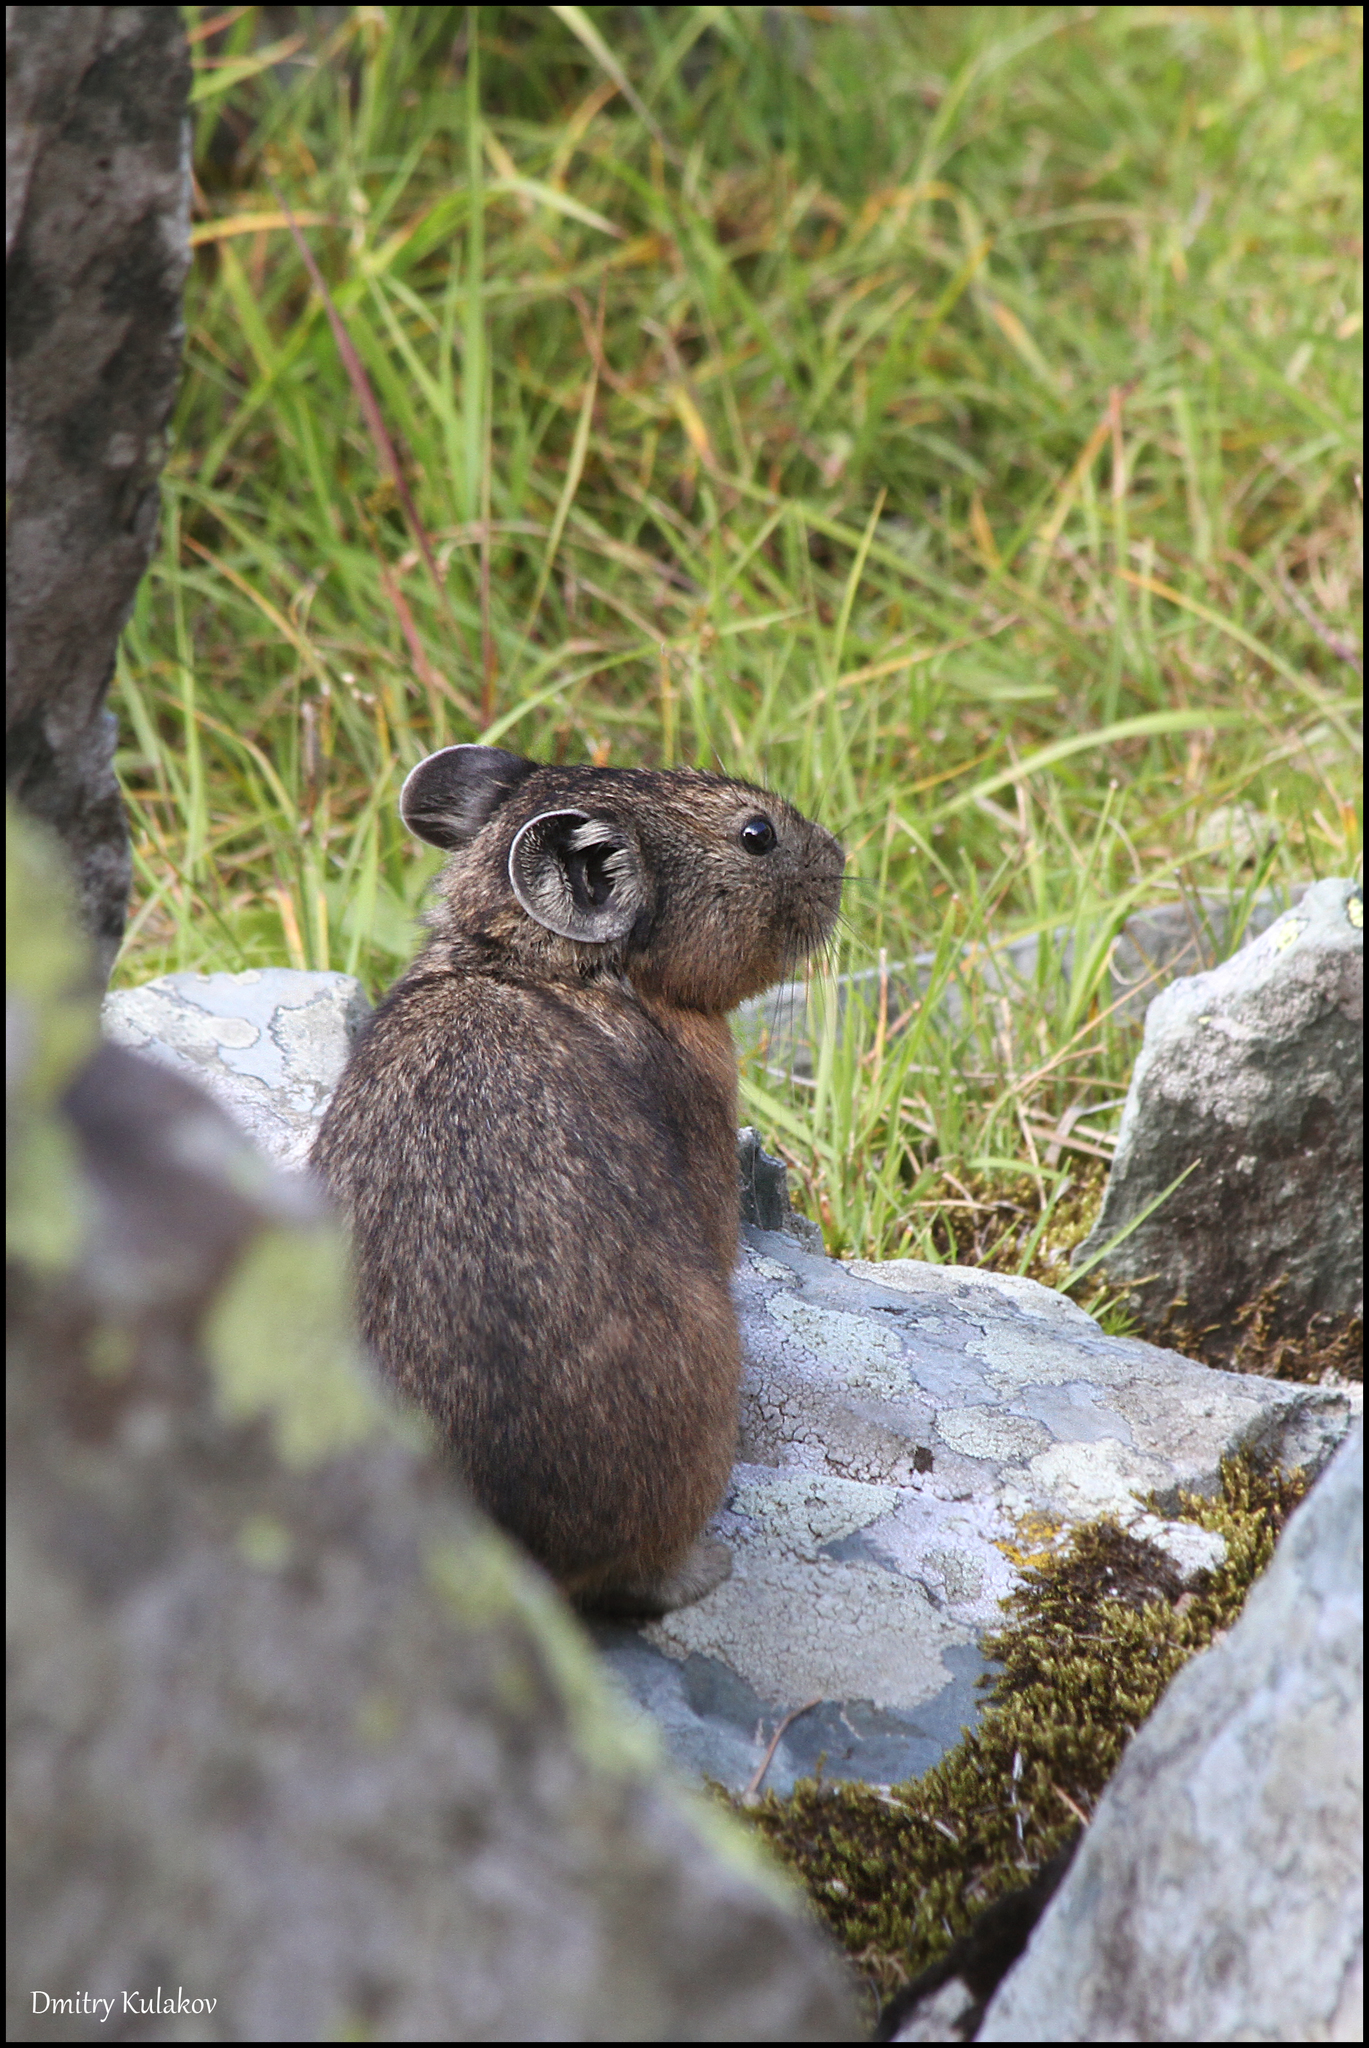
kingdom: Animalia
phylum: Chordata
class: Mammalia
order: Lagomorpha
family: Ochotonidae
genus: Ochotona
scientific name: Ochotona alpina
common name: Alpine pika
